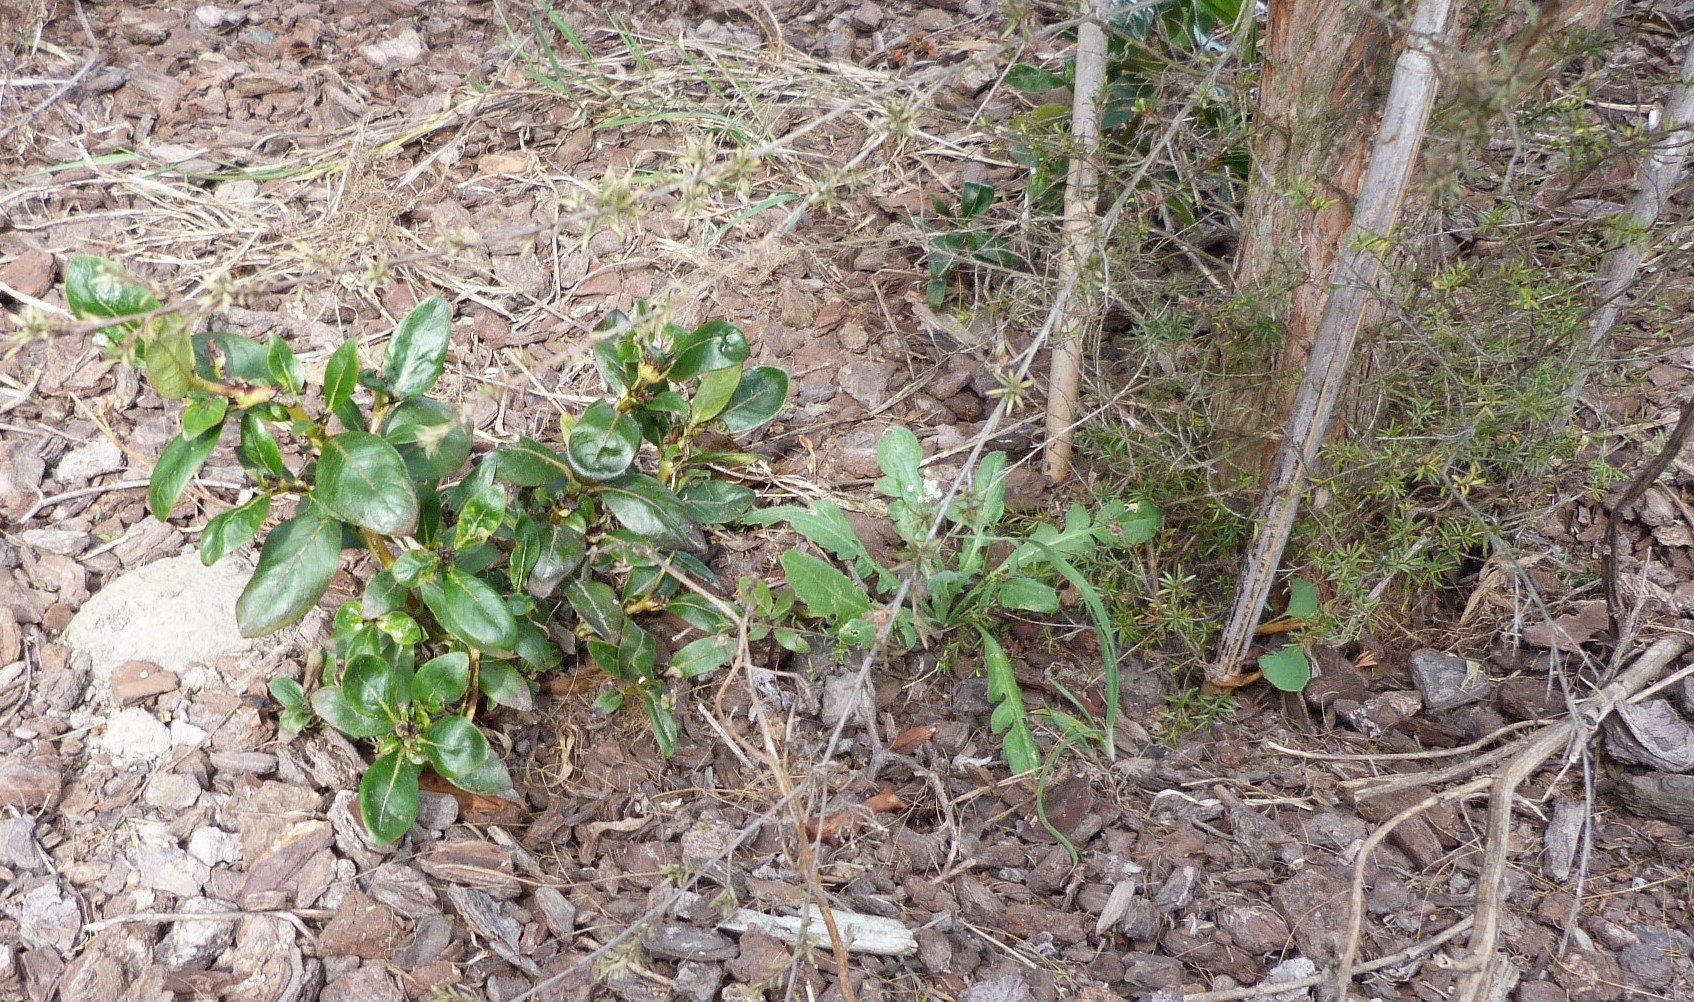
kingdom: Plantae
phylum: Tracheophyta
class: Magnoliopsida
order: Gentianales
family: Rubiaceae
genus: Coprosma
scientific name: Coprosma robusta
